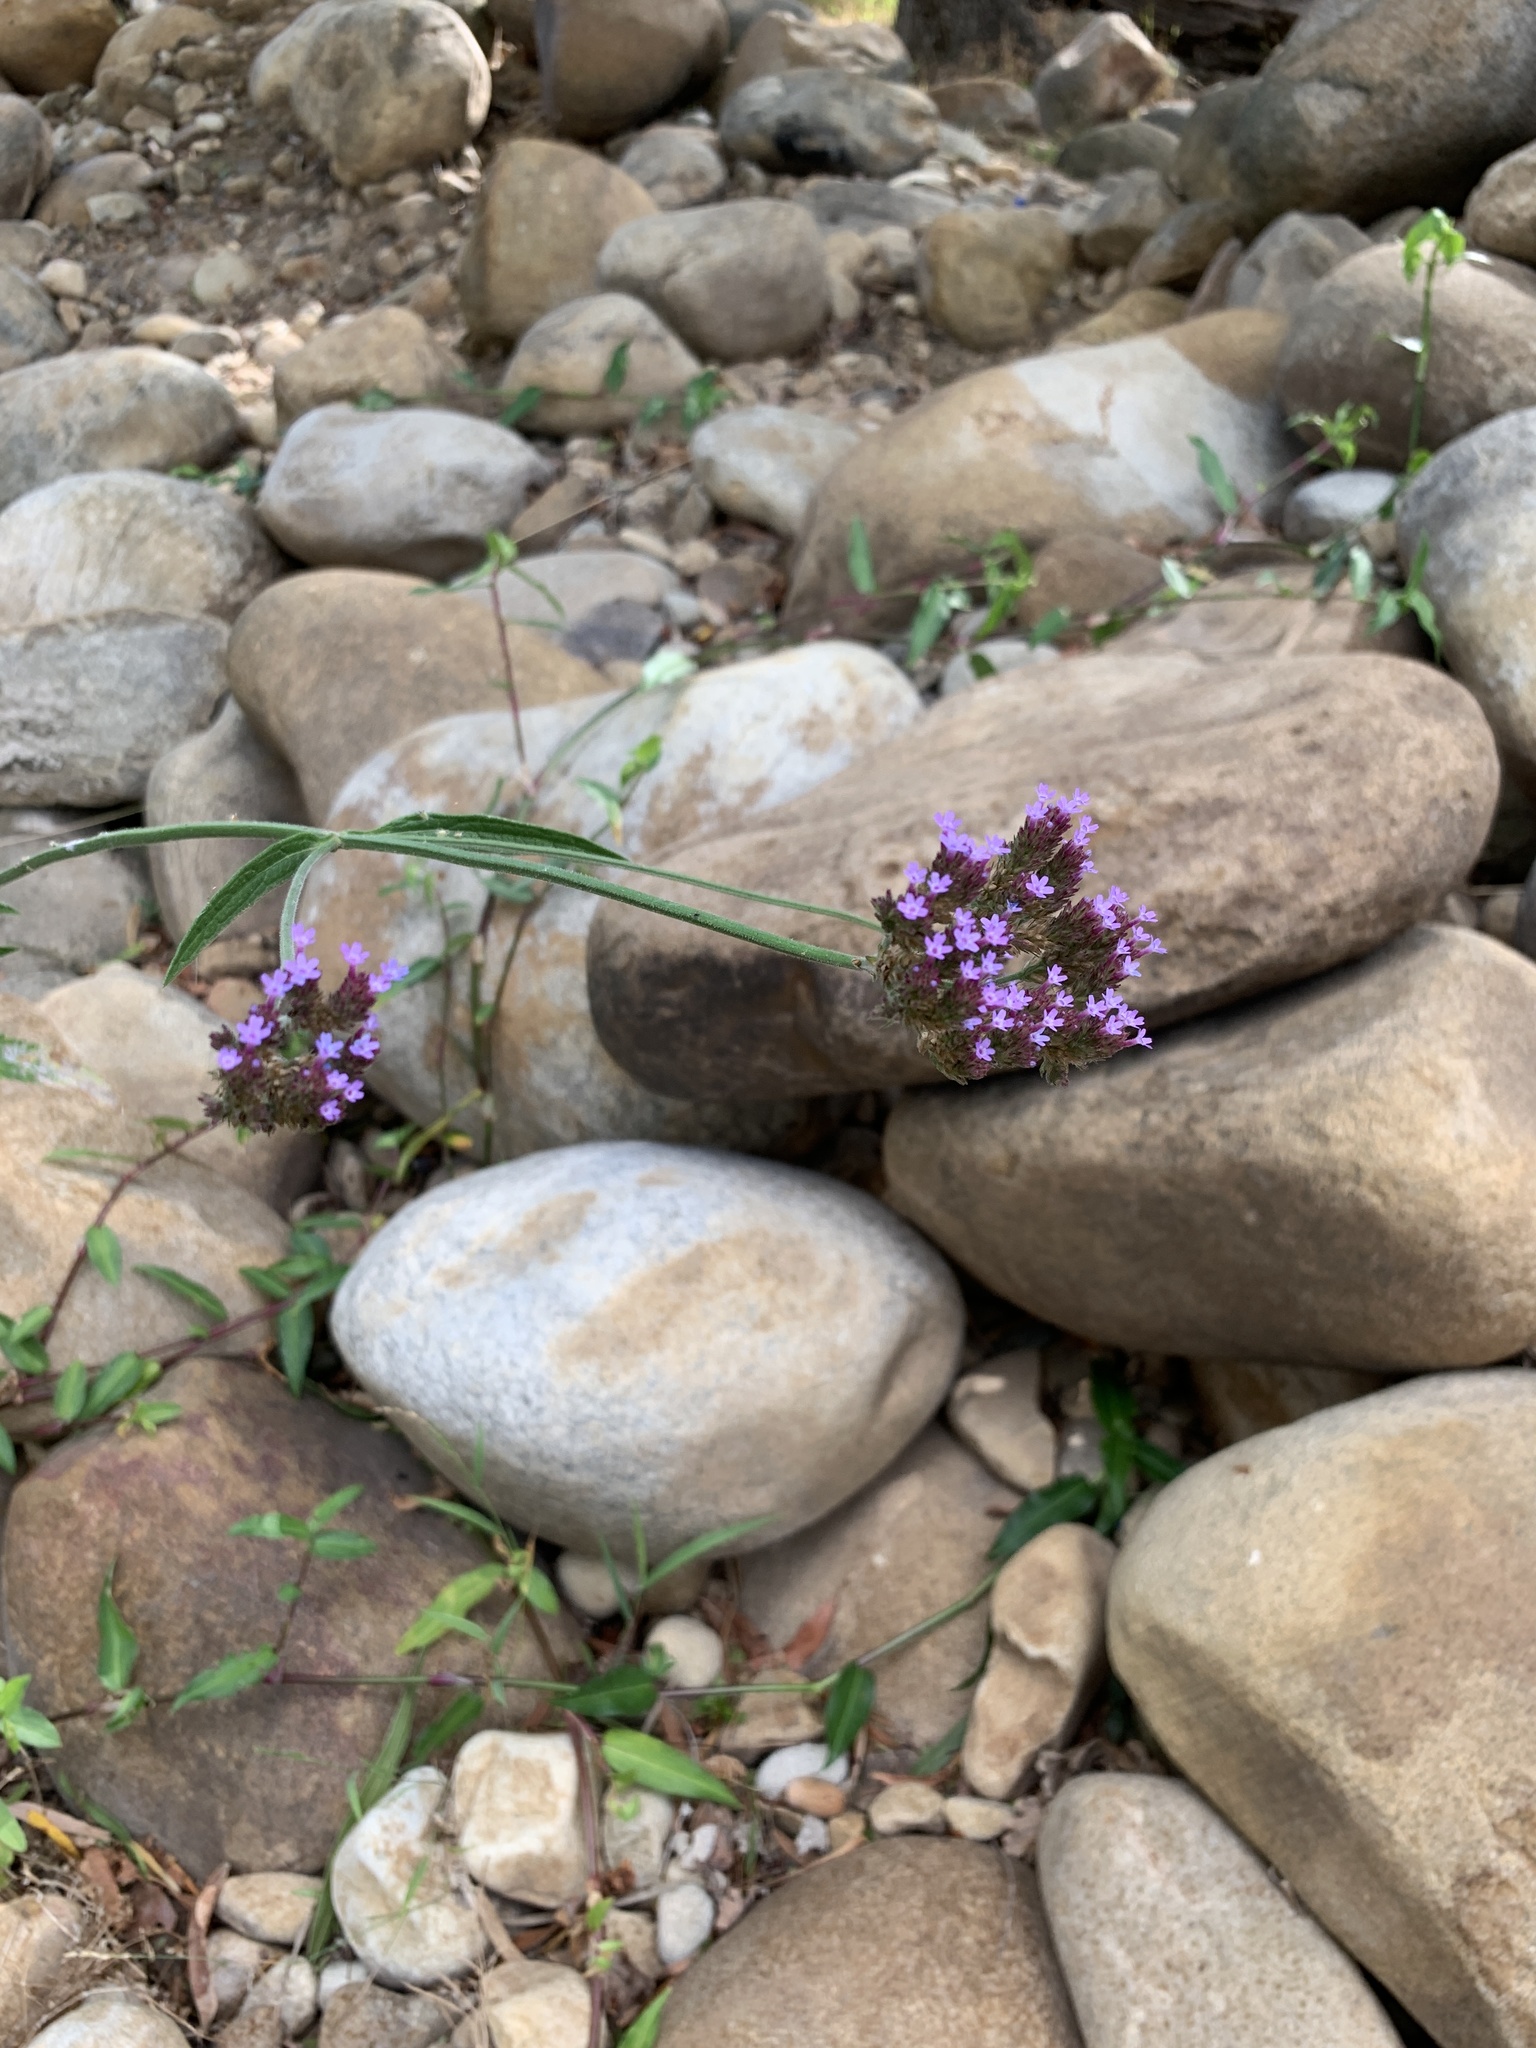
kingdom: Plantae
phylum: Tracheophyta
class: Magnoliopsida
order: Lamiales
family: Verbenaceae
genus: Verbena
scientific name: Verbena bonariensis
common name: Purpletop vervain
